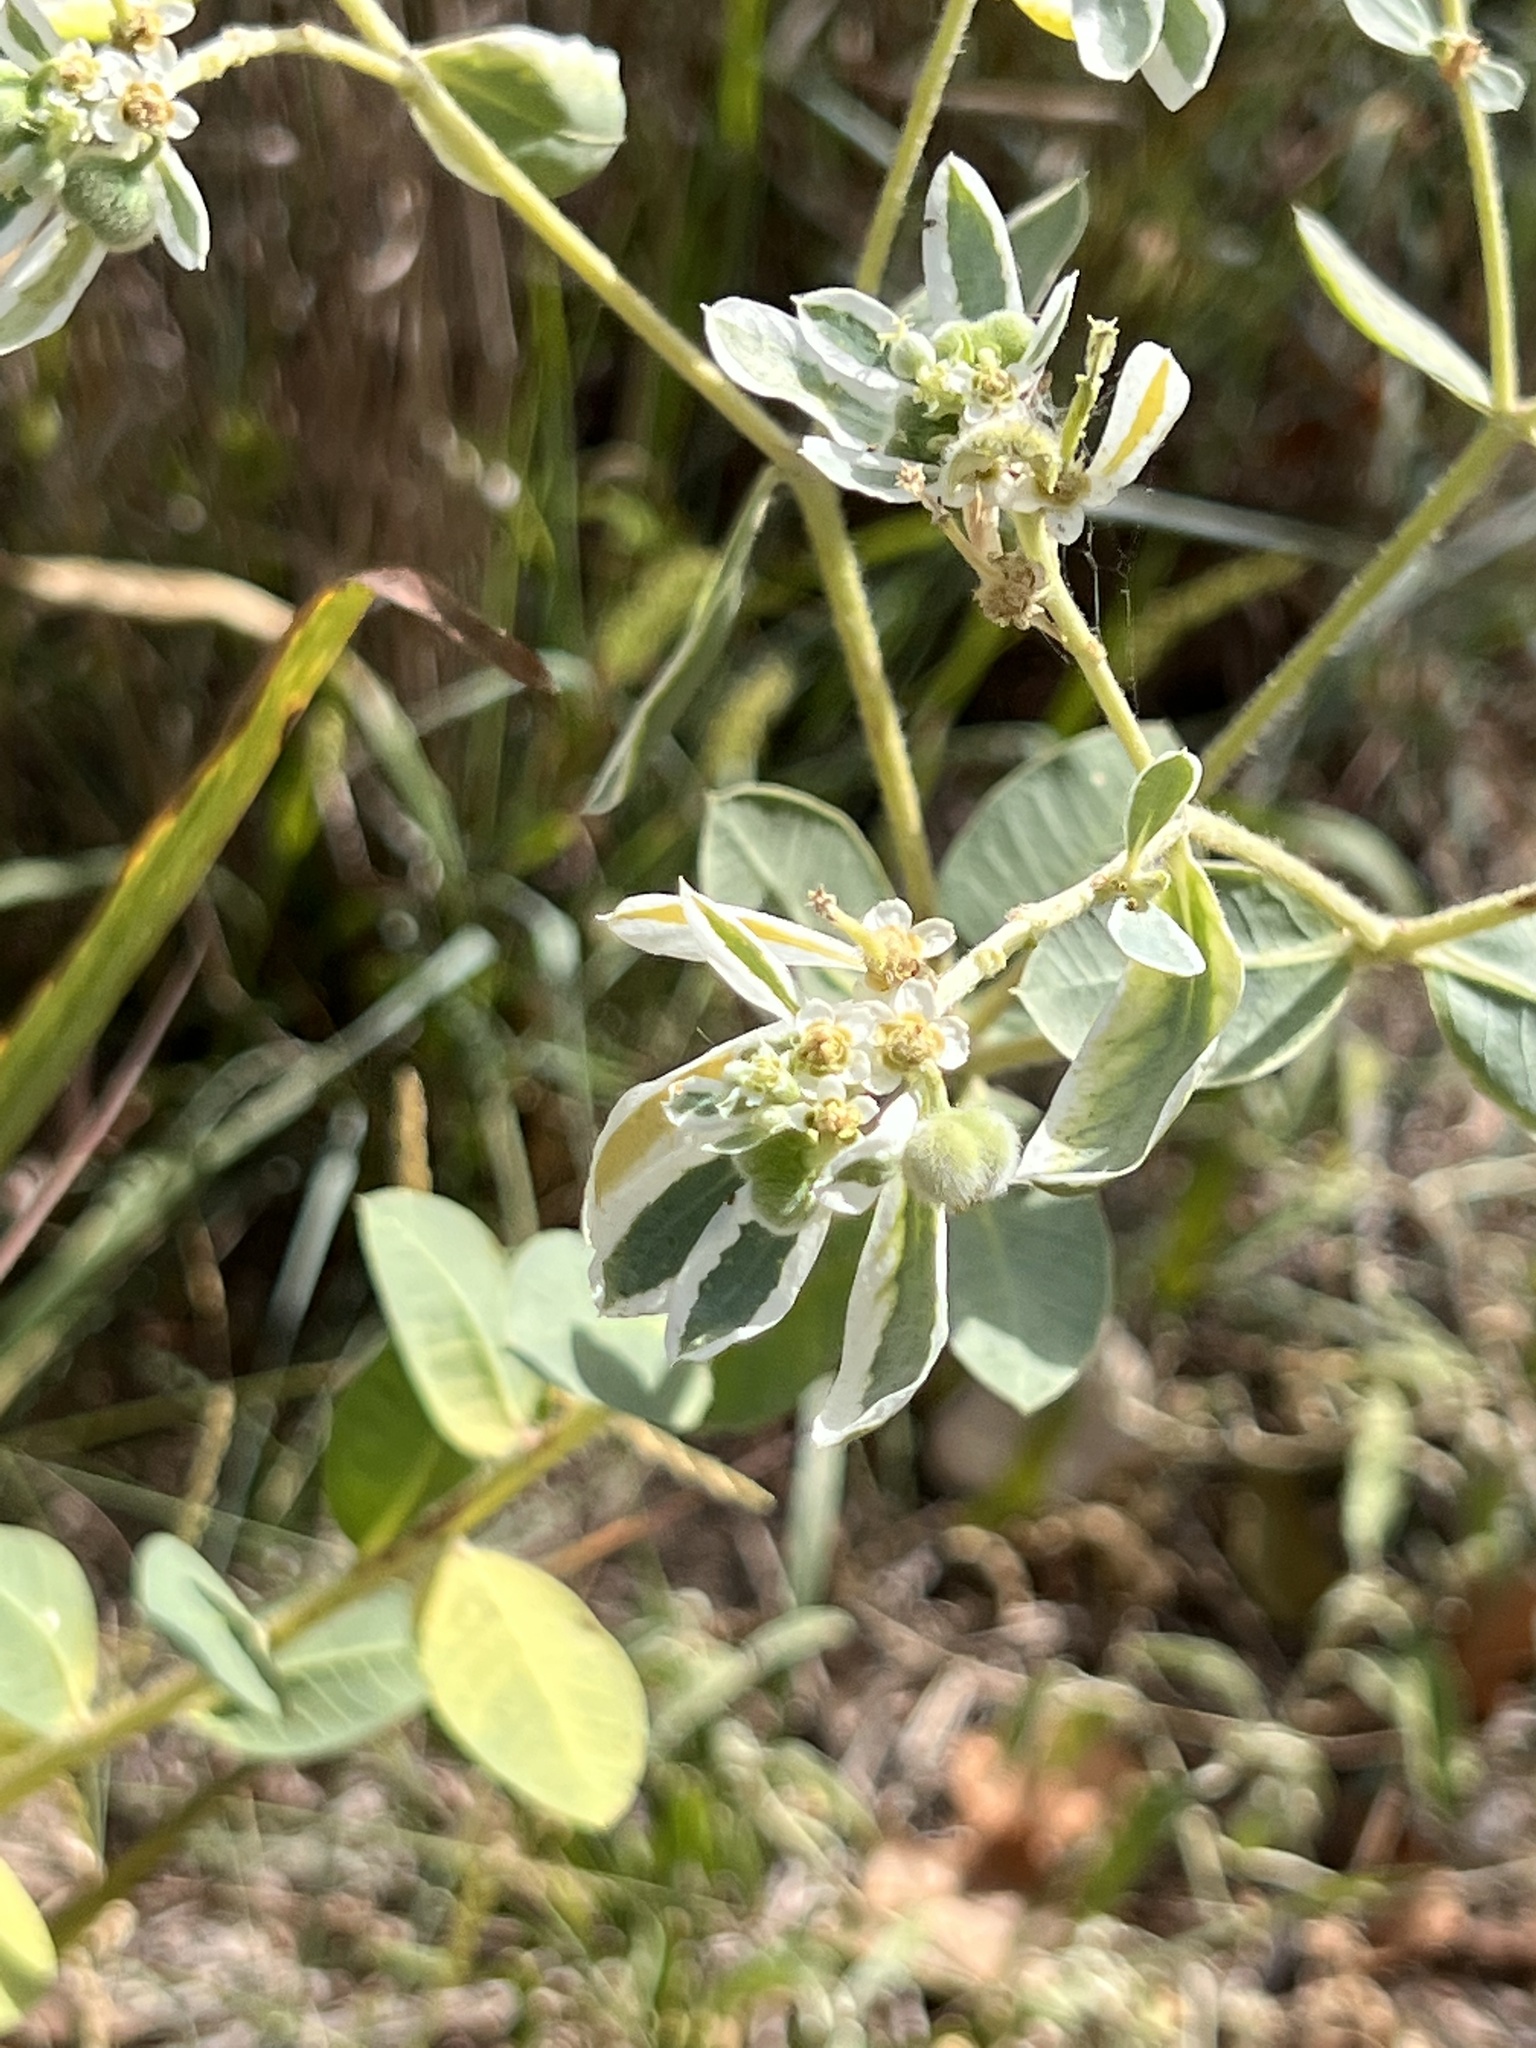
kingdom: Plantae
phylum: Tracheophyta
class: Magnoliopsida
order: Malpighiales
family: Euphorbiaceae
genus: Euphorbia
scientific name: Euphorbia marginata
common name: Ghostweed
